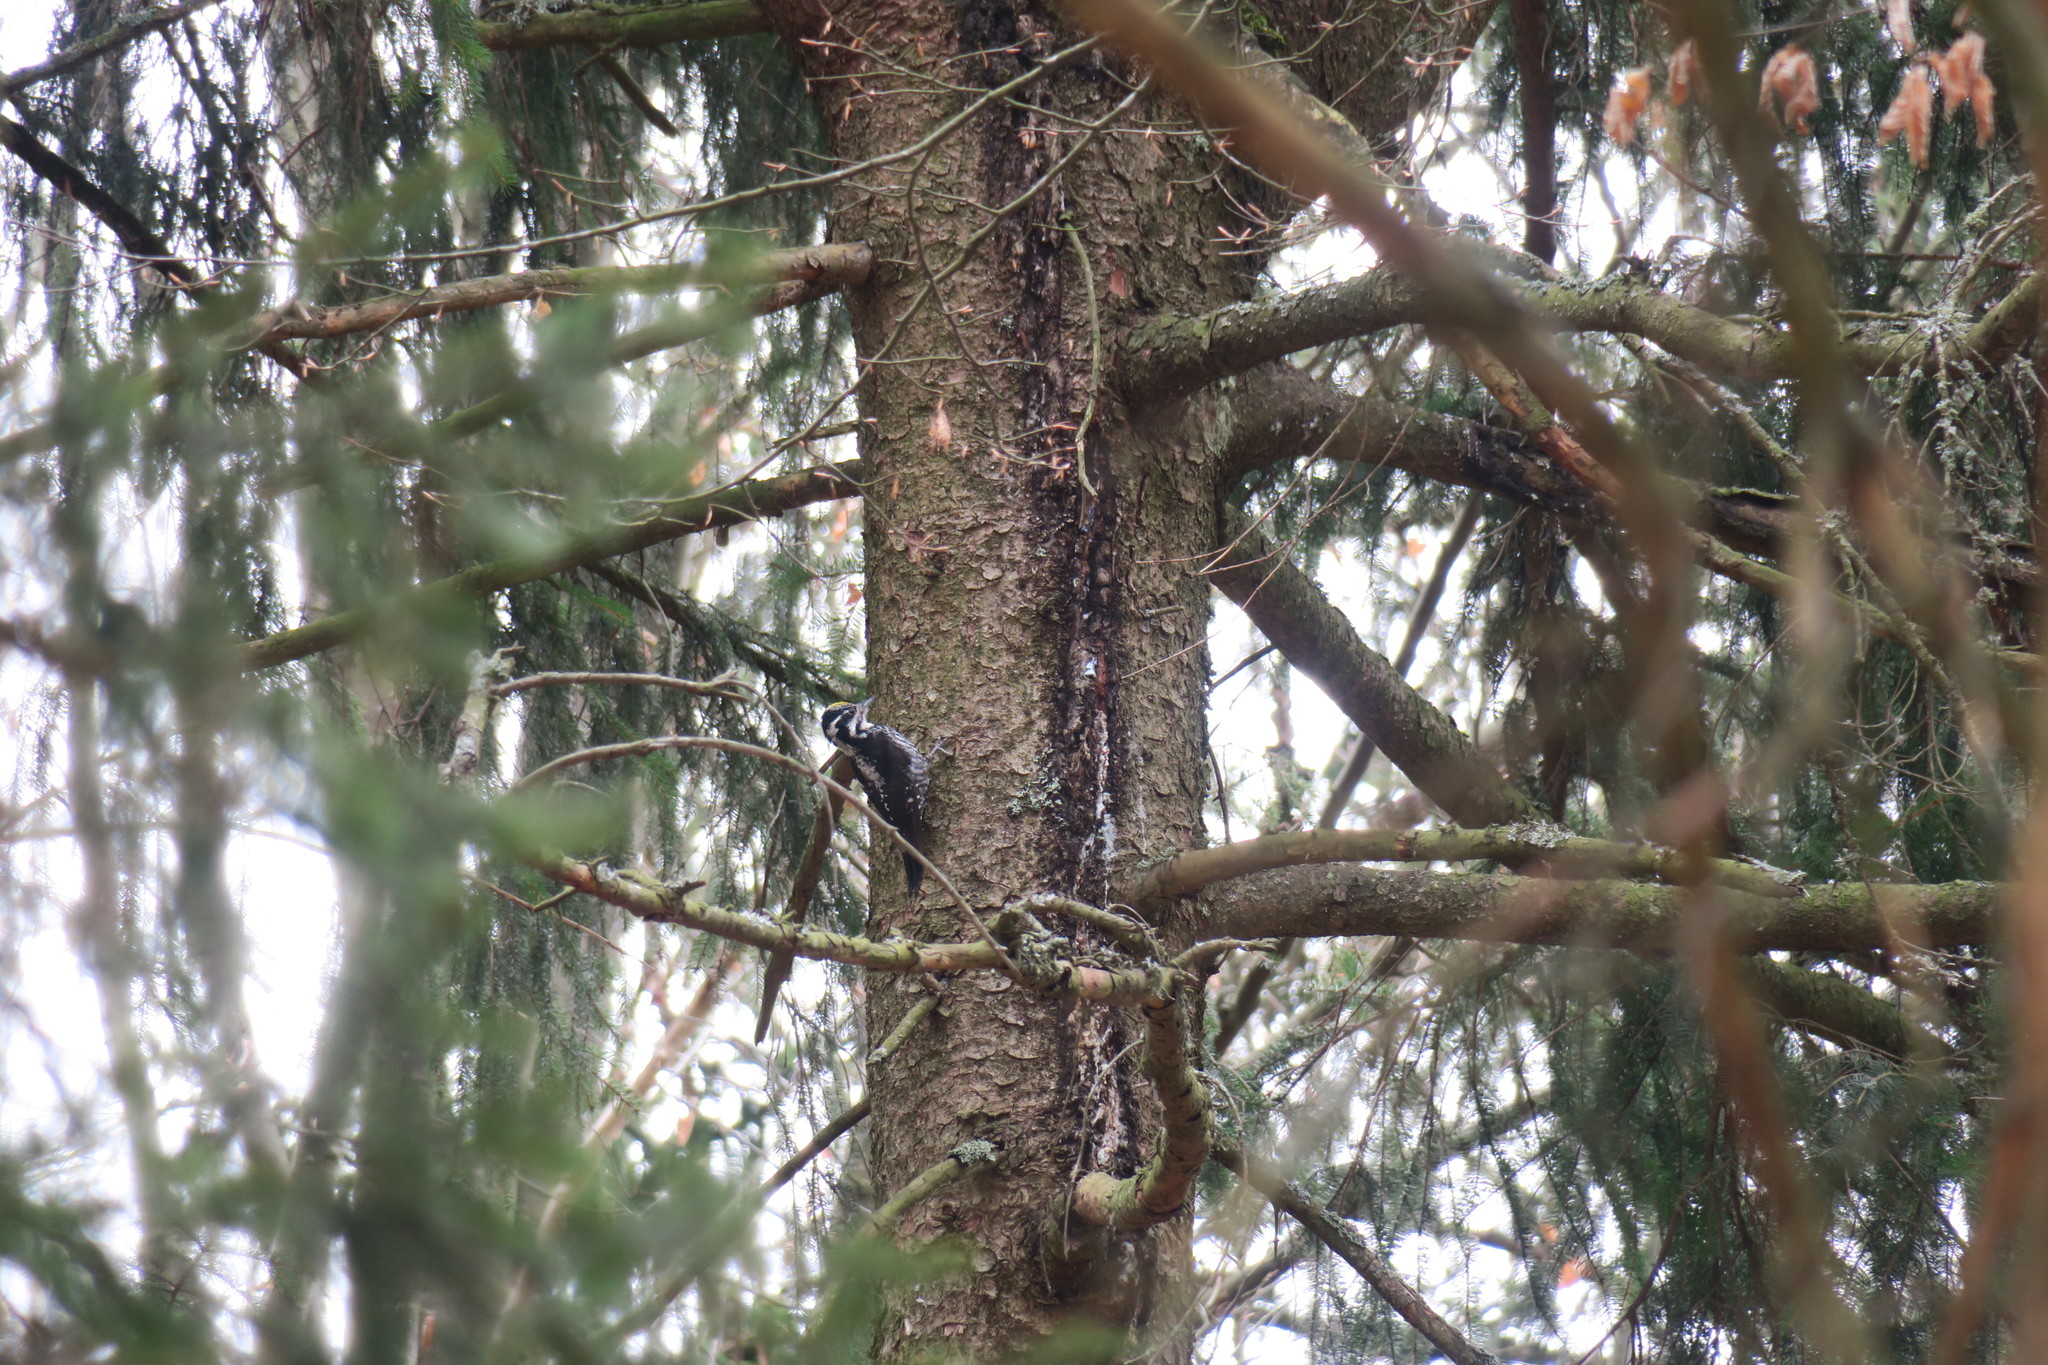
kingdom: Animalia
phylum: Chordata
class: Aves
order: Piciformes
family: Picidae
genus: Picoides
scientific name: Picoides tridactylus
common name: Eurasian three-toed woodpecker
